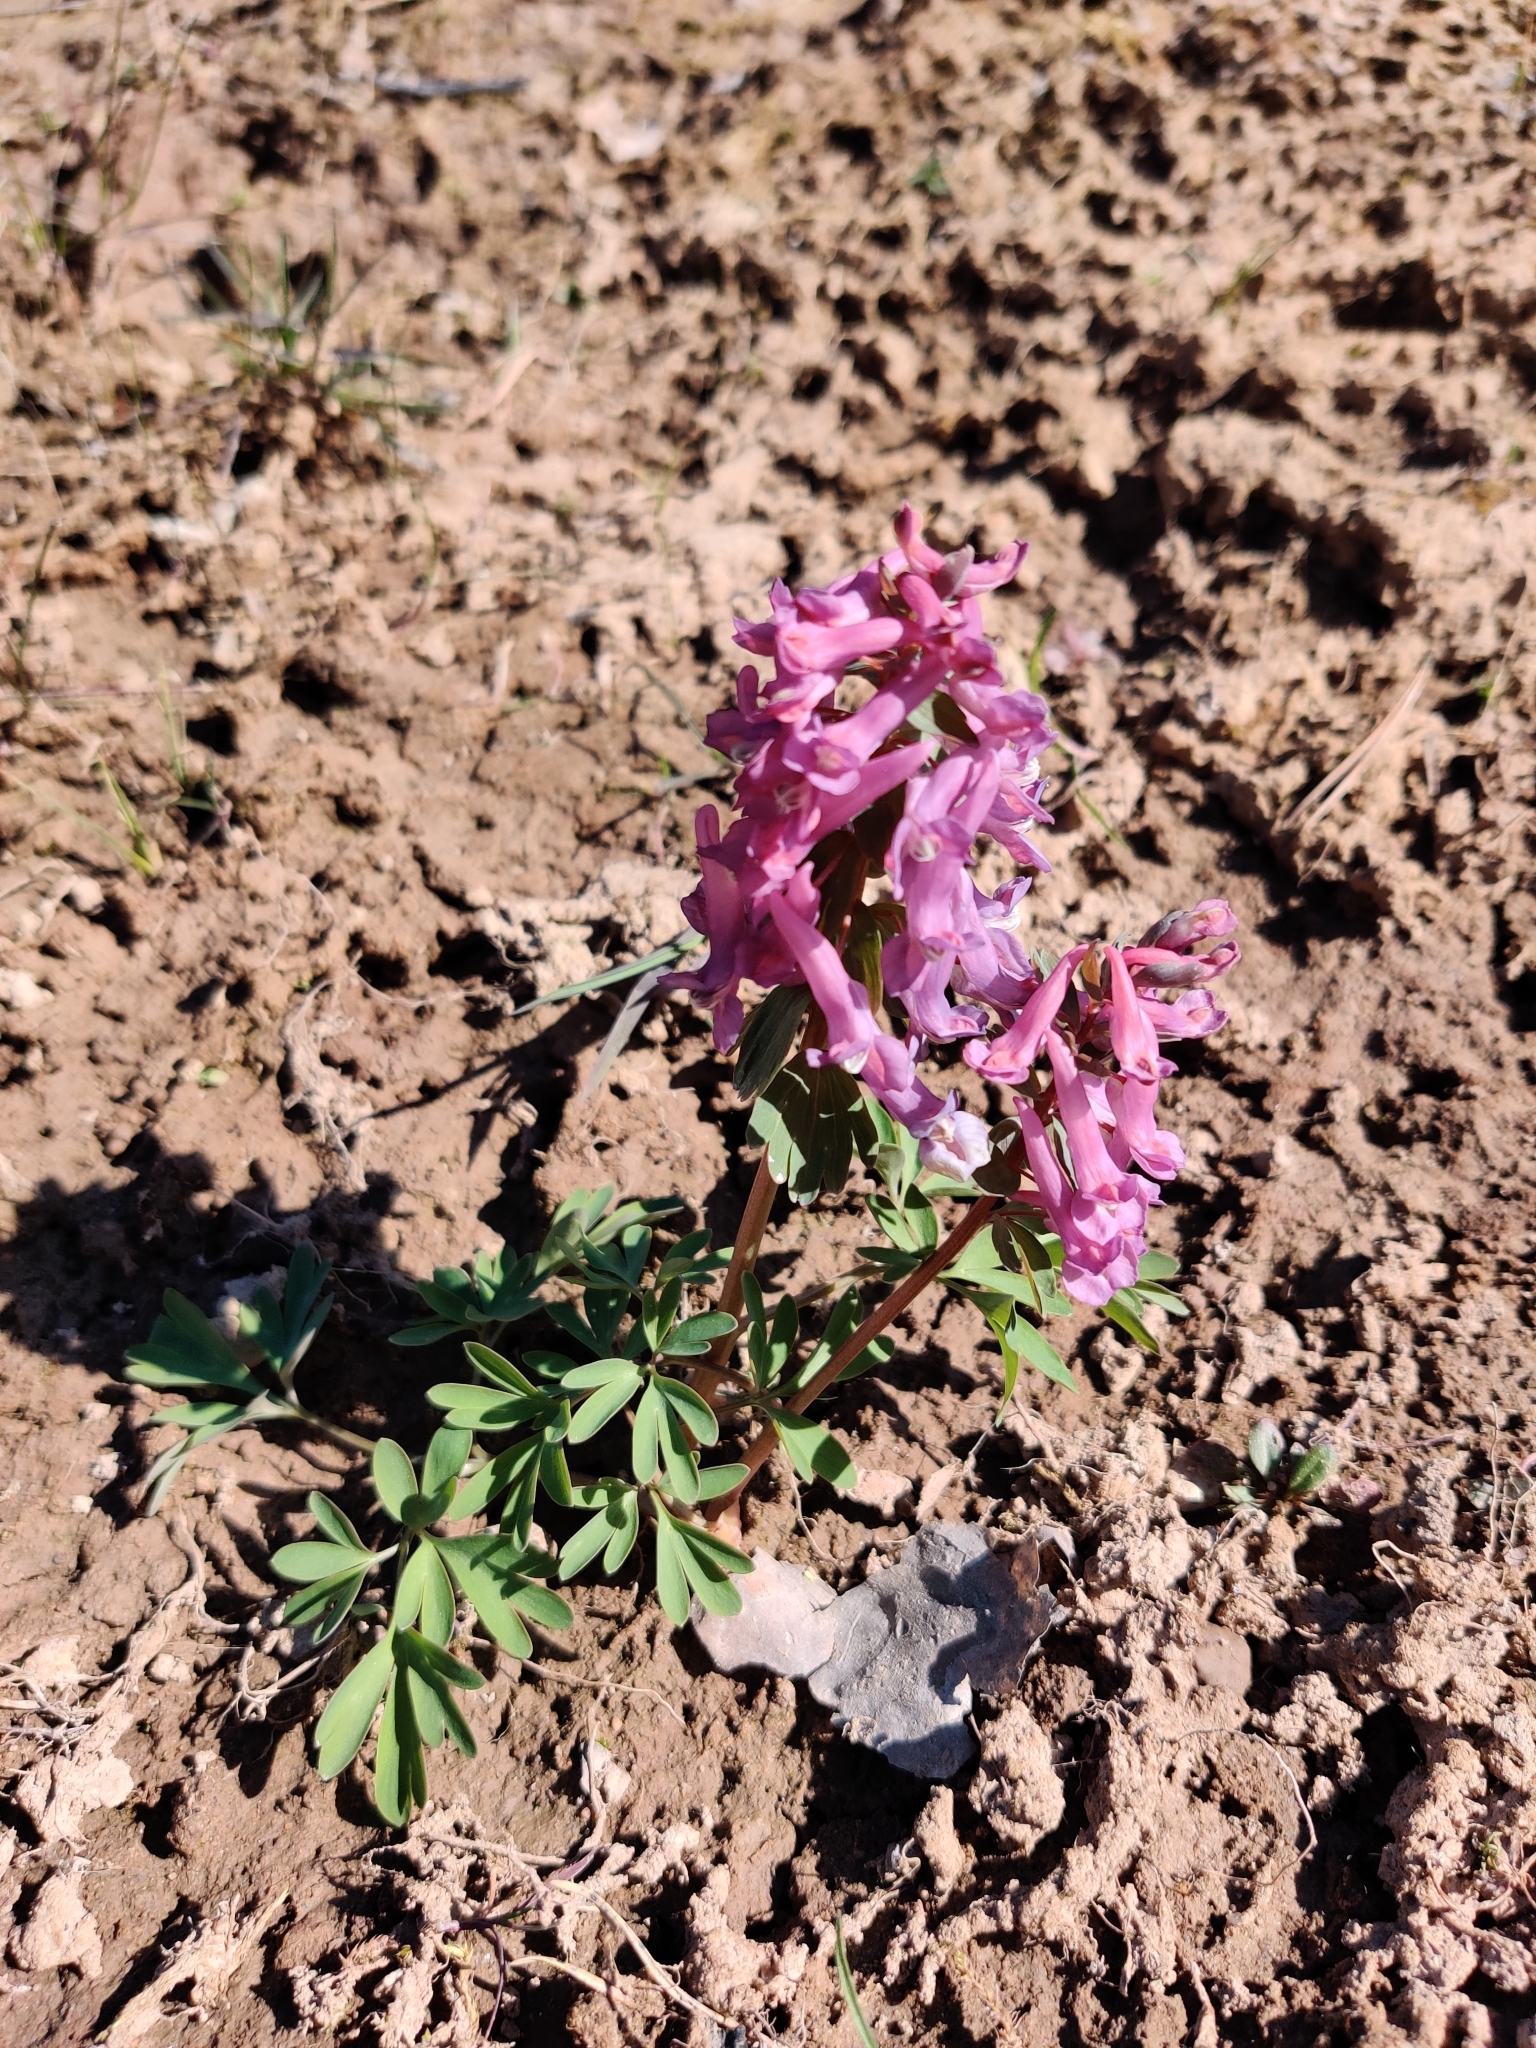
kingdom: Plantae
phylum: Tracheophyta
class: Magnoliopsida
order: Ranunculales
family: Papaveraceae
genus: Corydalis
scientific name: Corydalis solida
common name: Bird-in-a-bush
